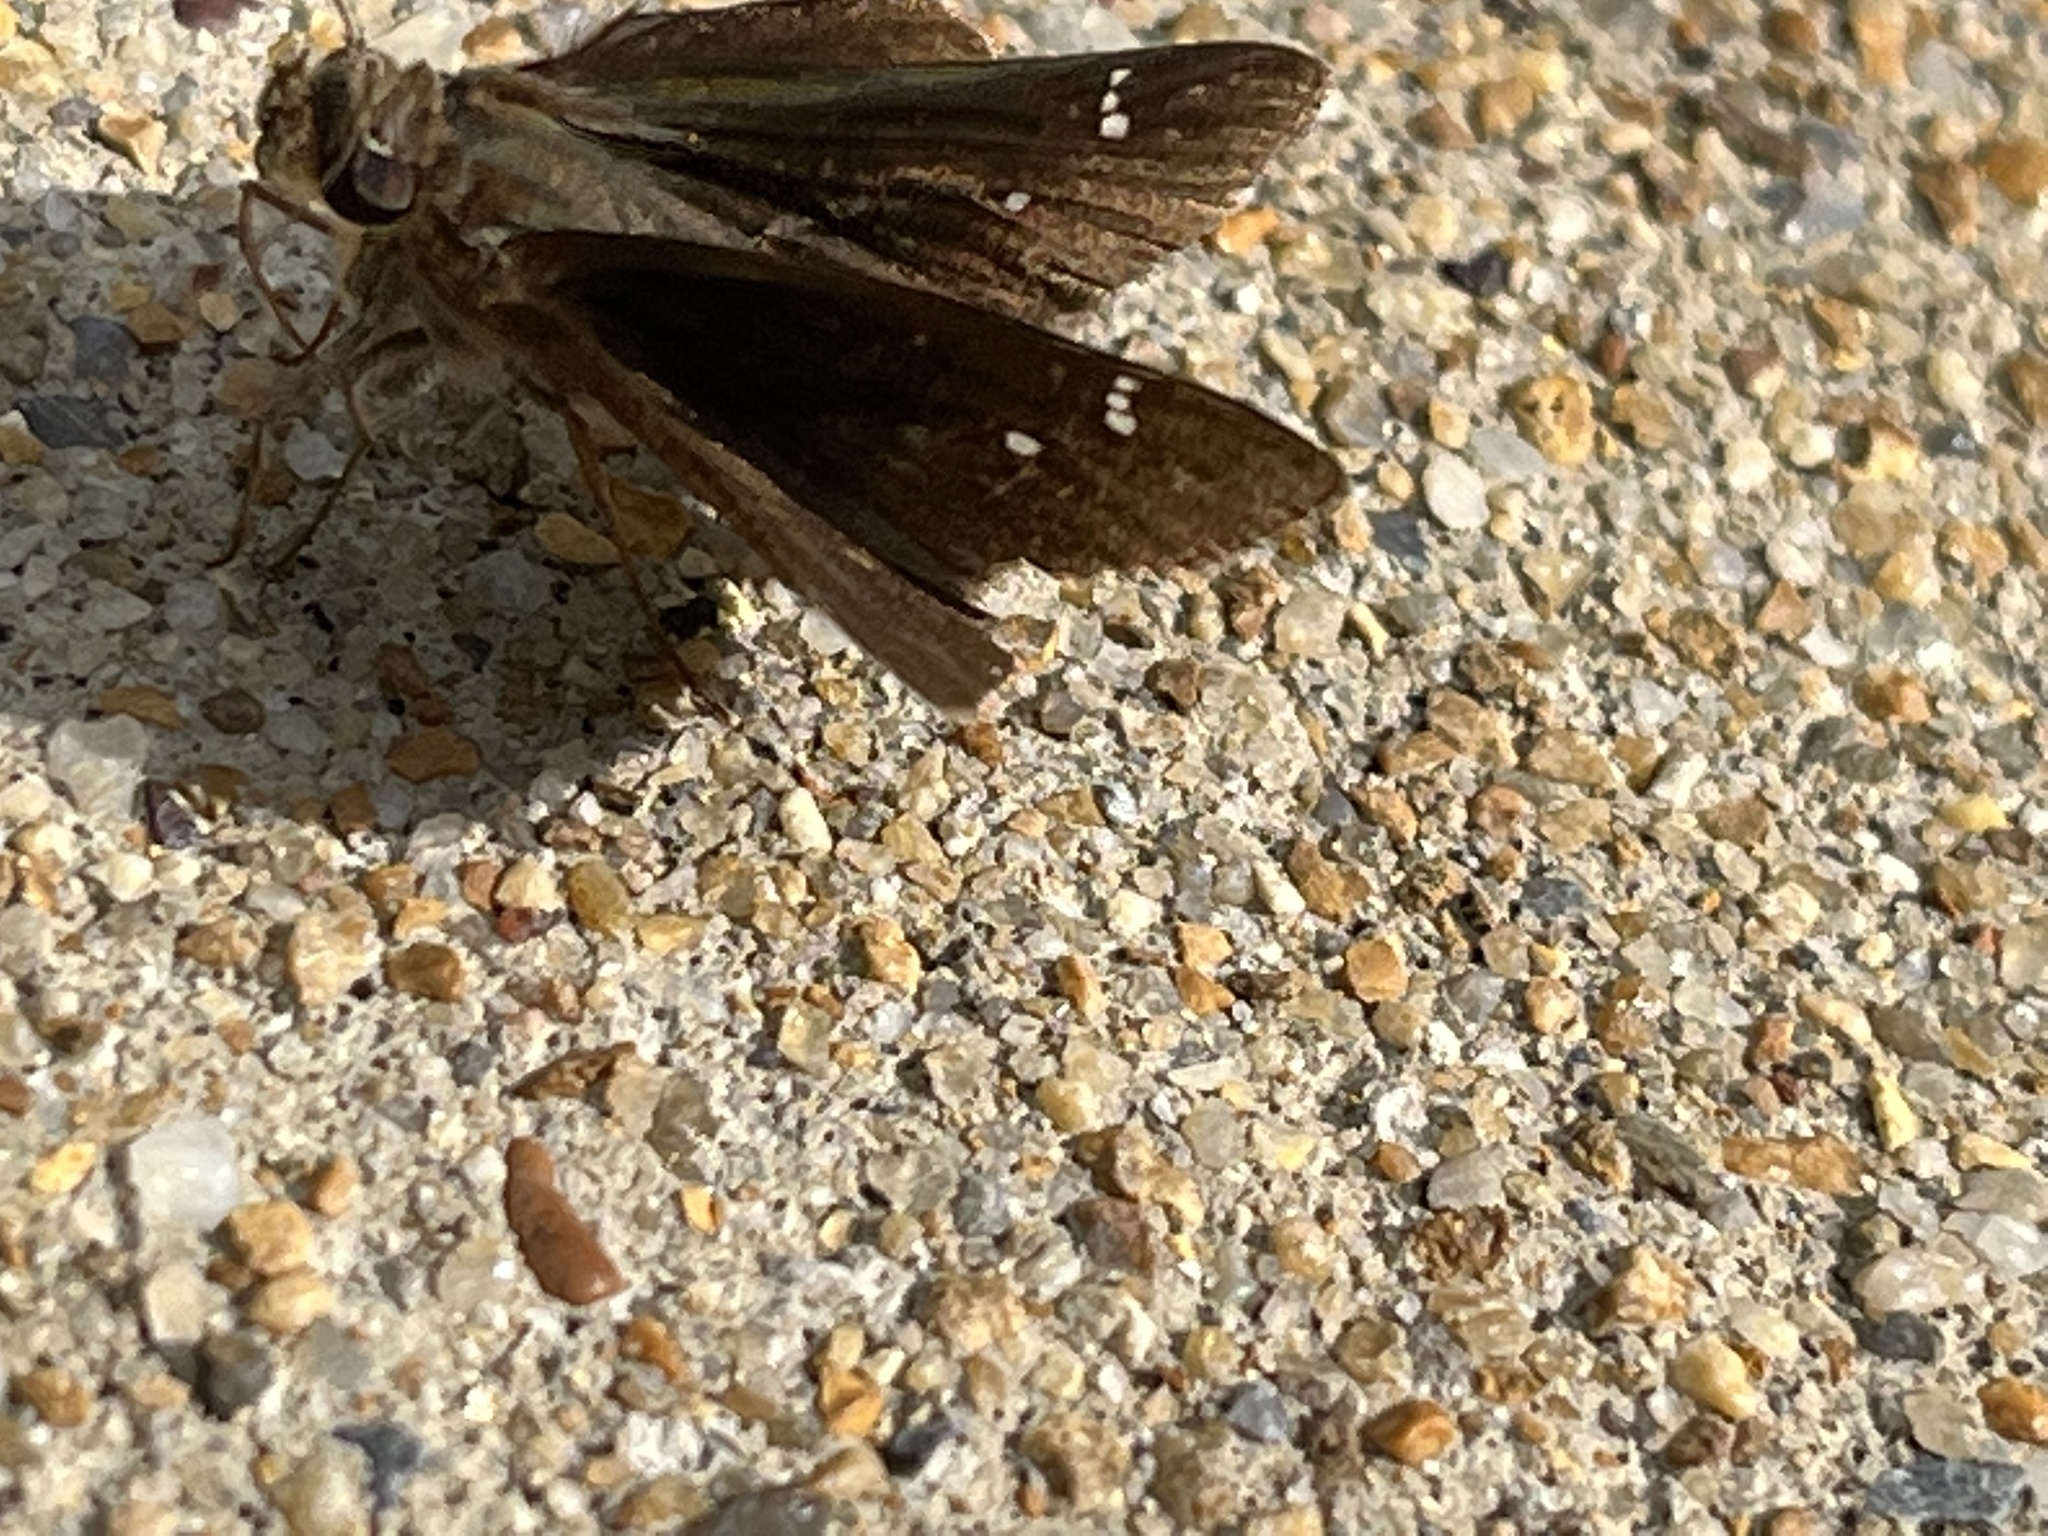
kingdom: Animalia
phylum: Arthropoda
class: Insecta
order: Lepidoptera
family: Hesperiidae
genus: Lerema
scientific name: Lerema accius
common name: Clouded skipper
